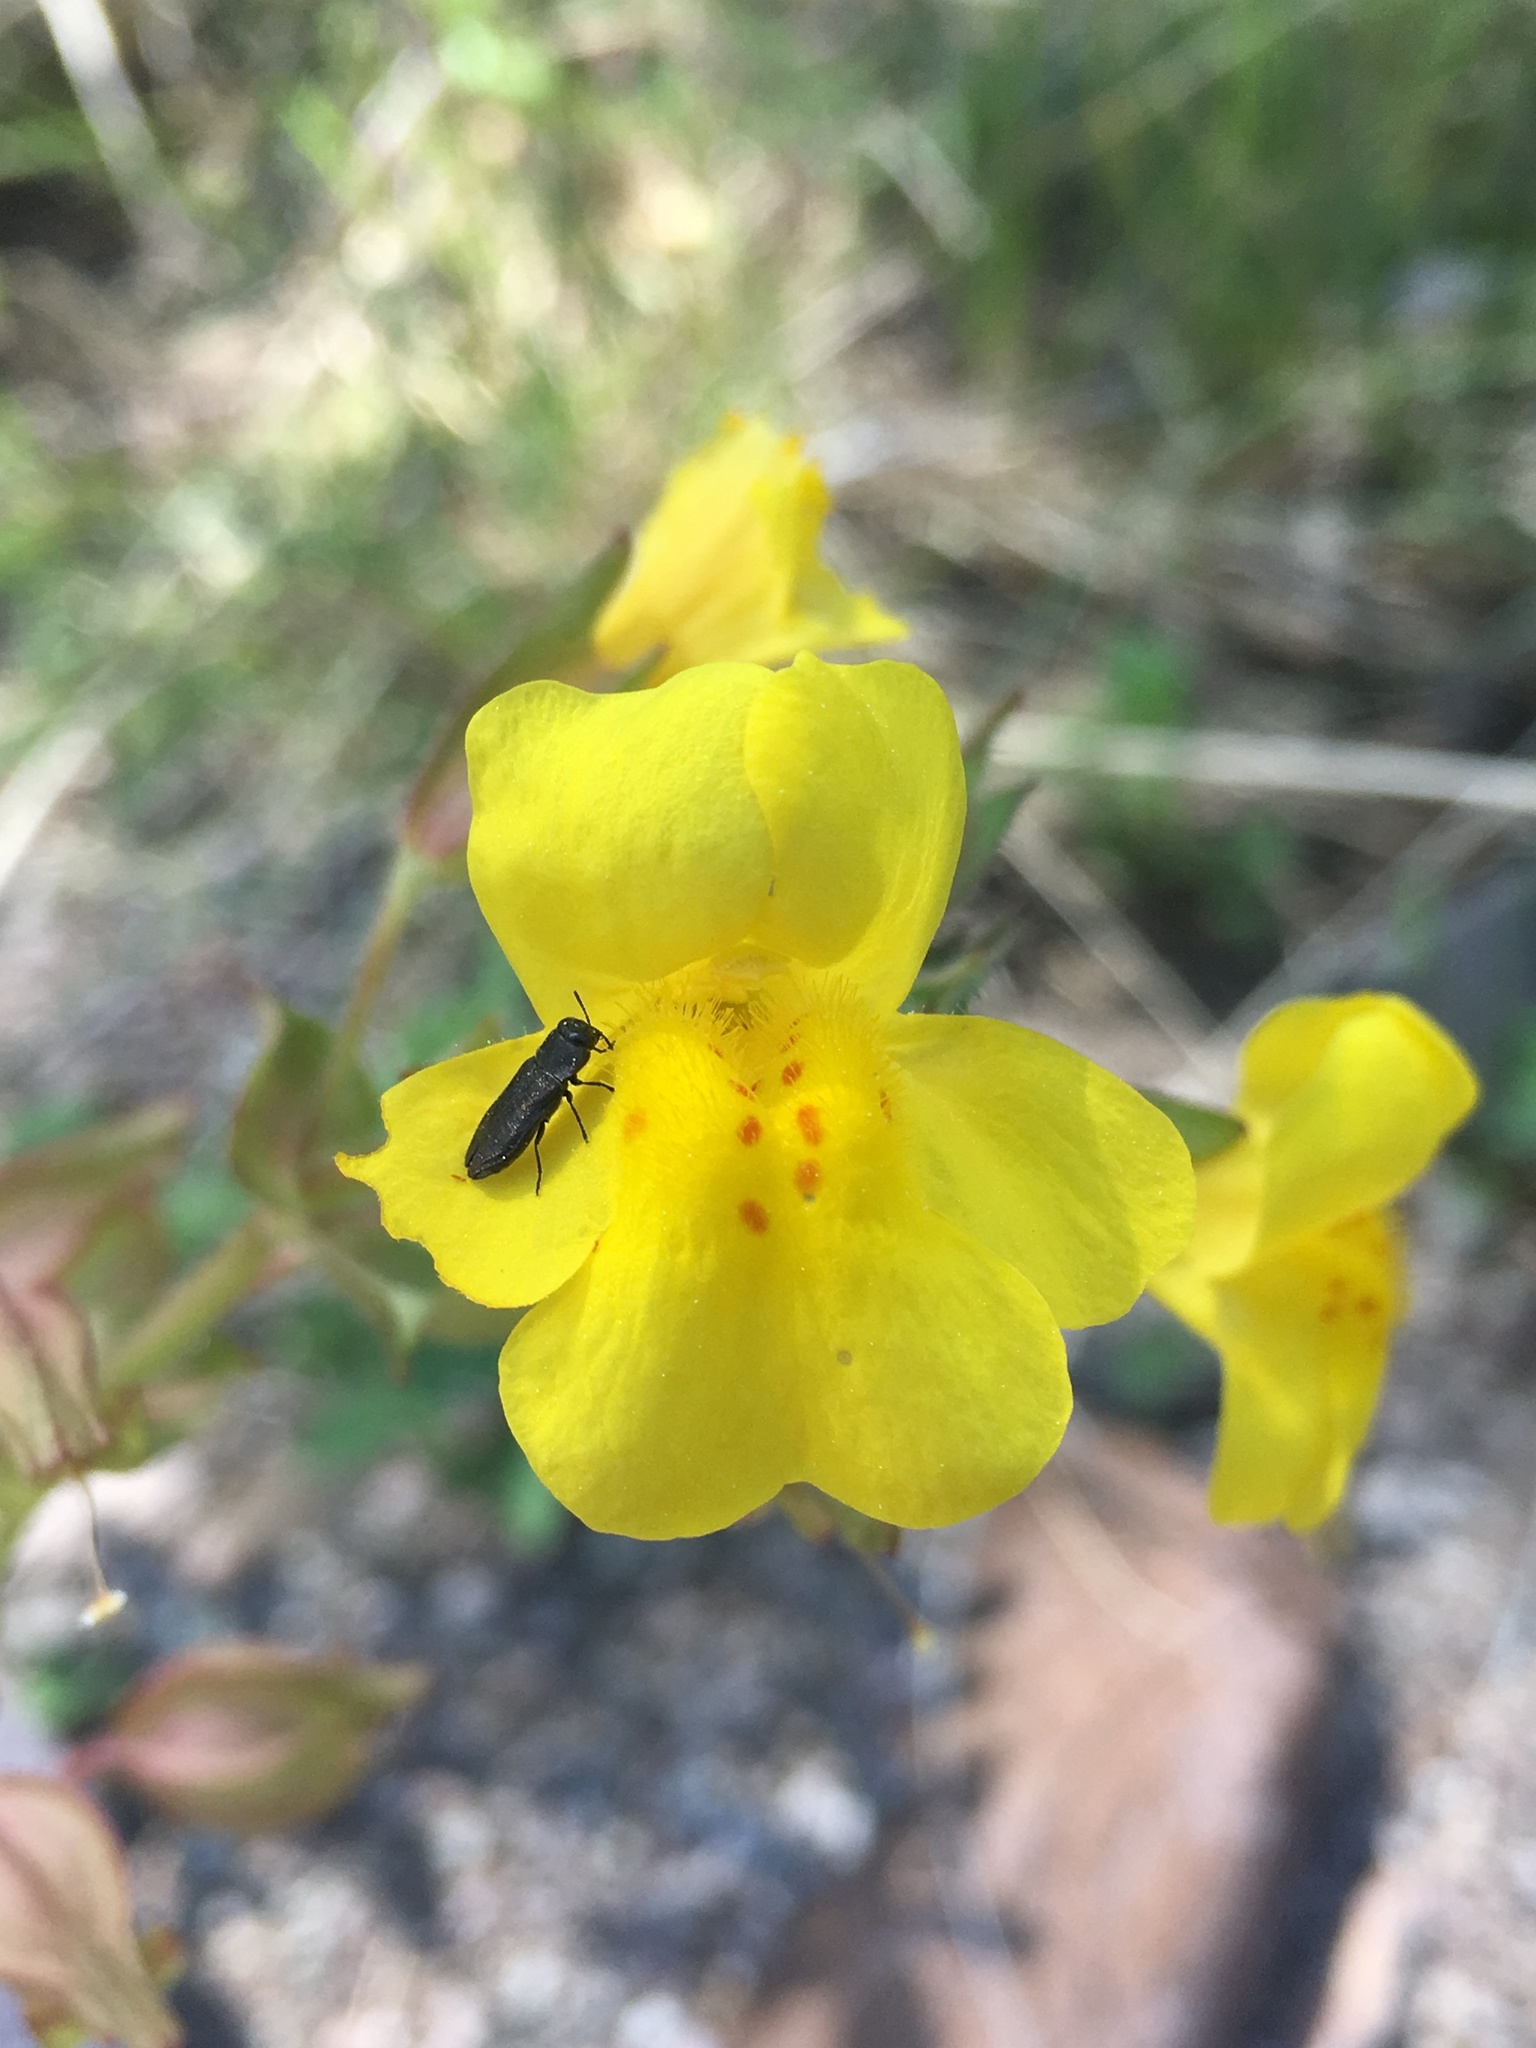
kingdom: Plantae
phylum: Tracheophyta
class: Magnoliopsida
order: Lamiales
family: Phrymaceae
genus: Erythranthe
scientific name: Erythranthe guttata
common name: Monkeyflower
